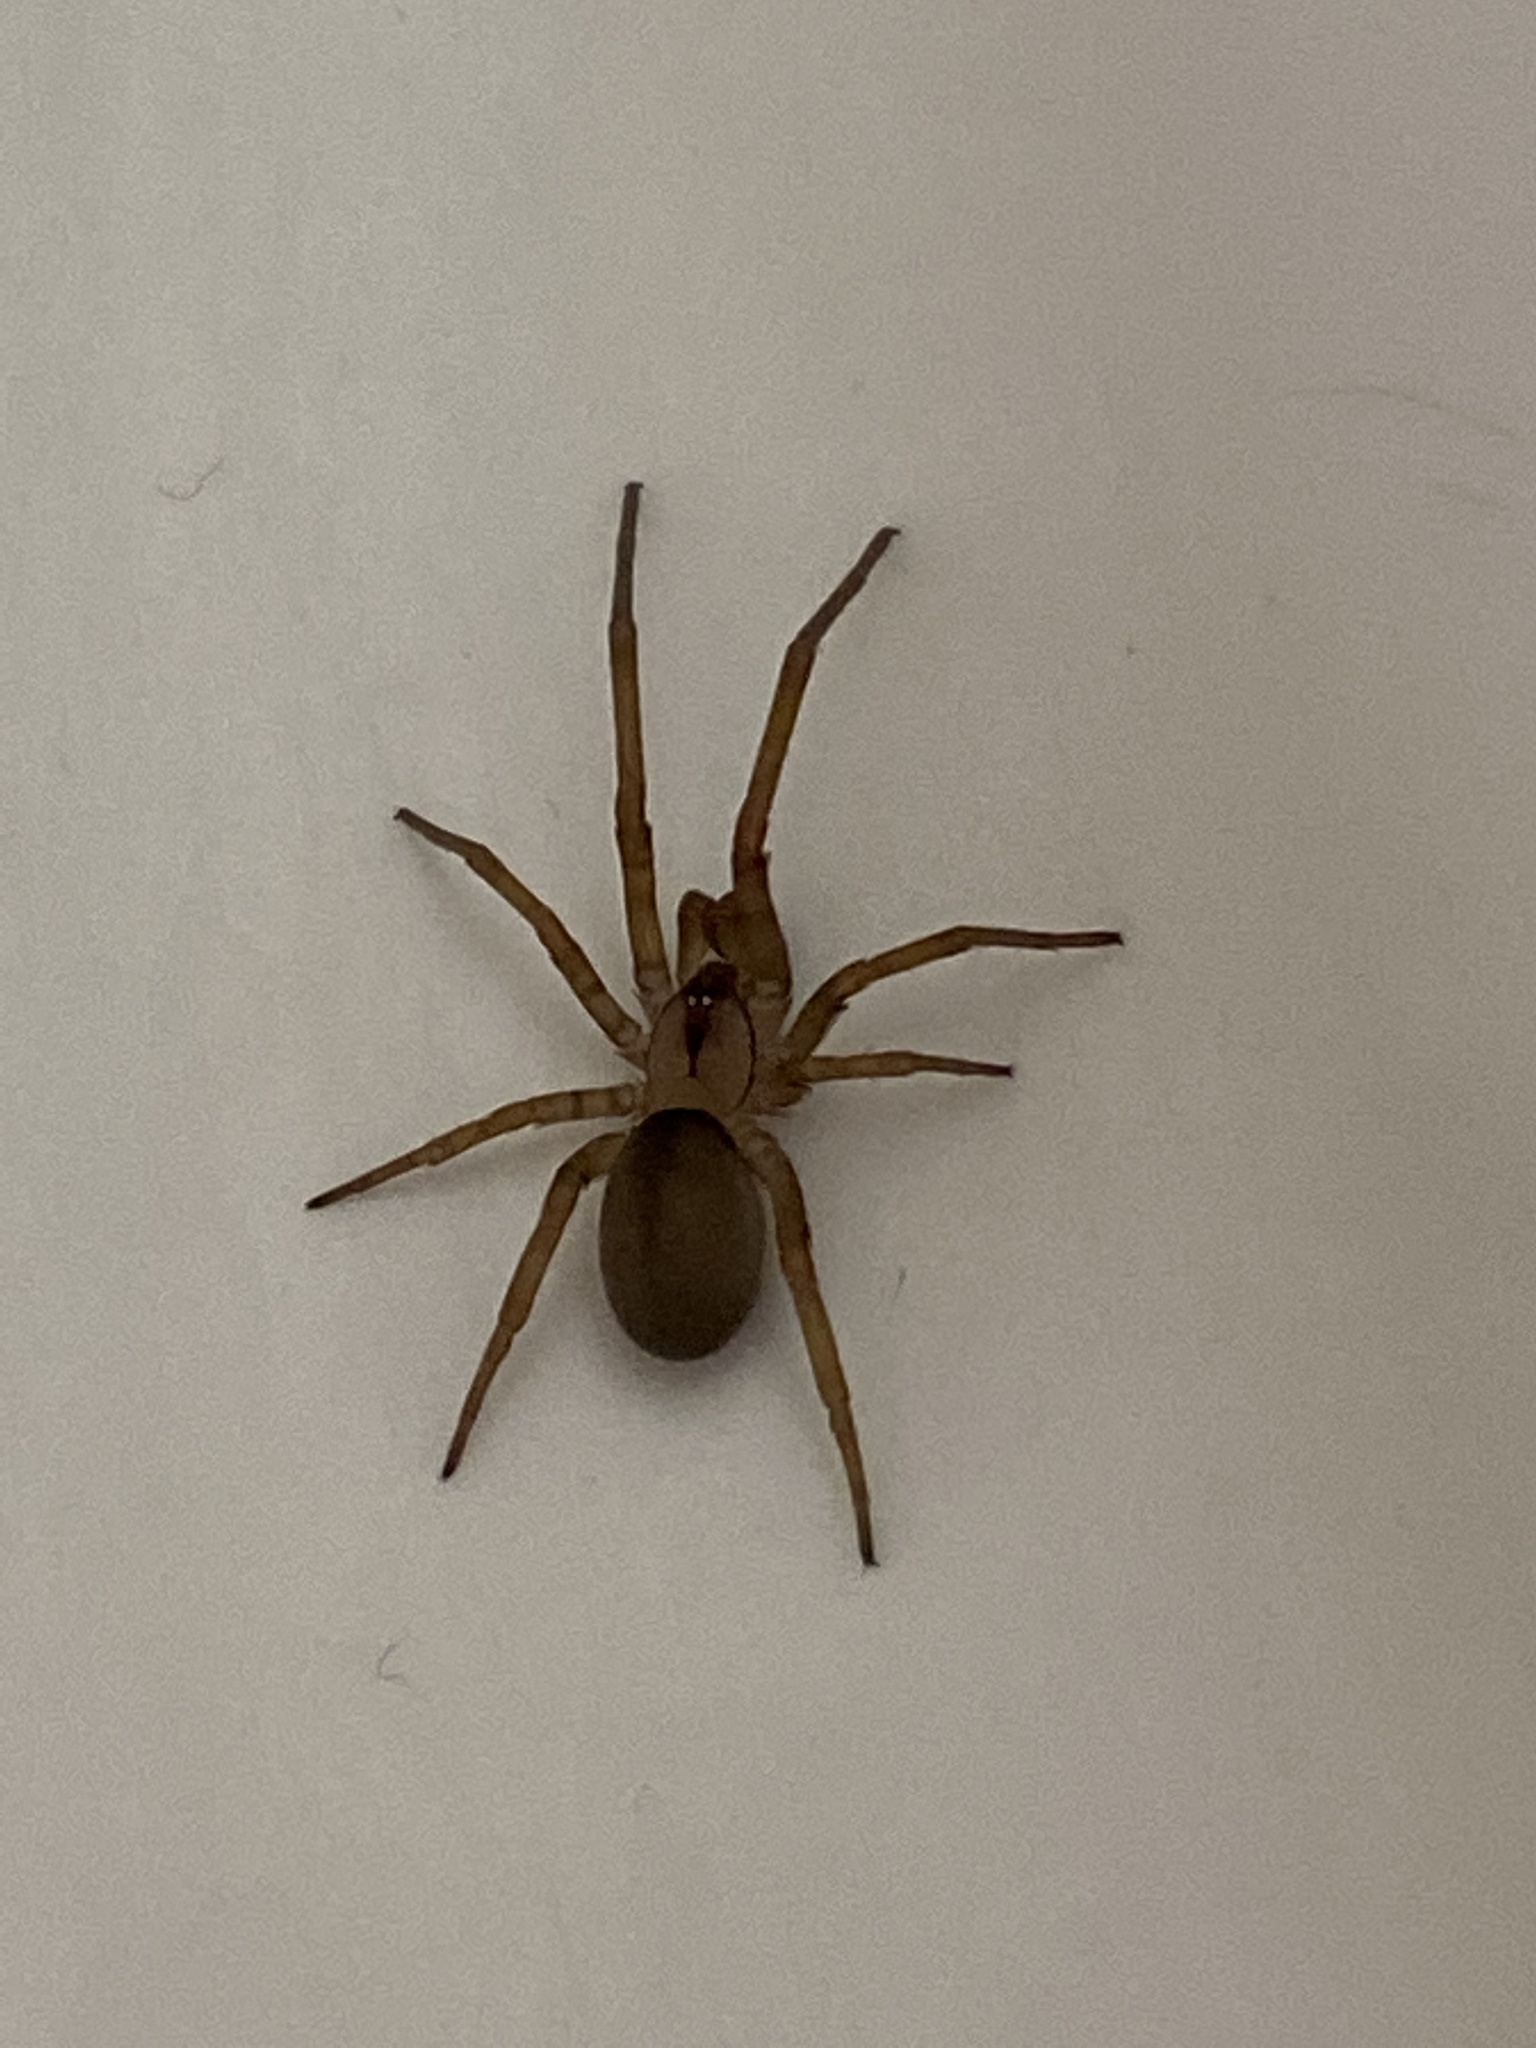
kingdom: Animalia
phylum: Arthropoda
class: Arachnida
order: Araneae
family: Filistatidae
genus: Filistata
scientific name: Filistata insidiatrix
